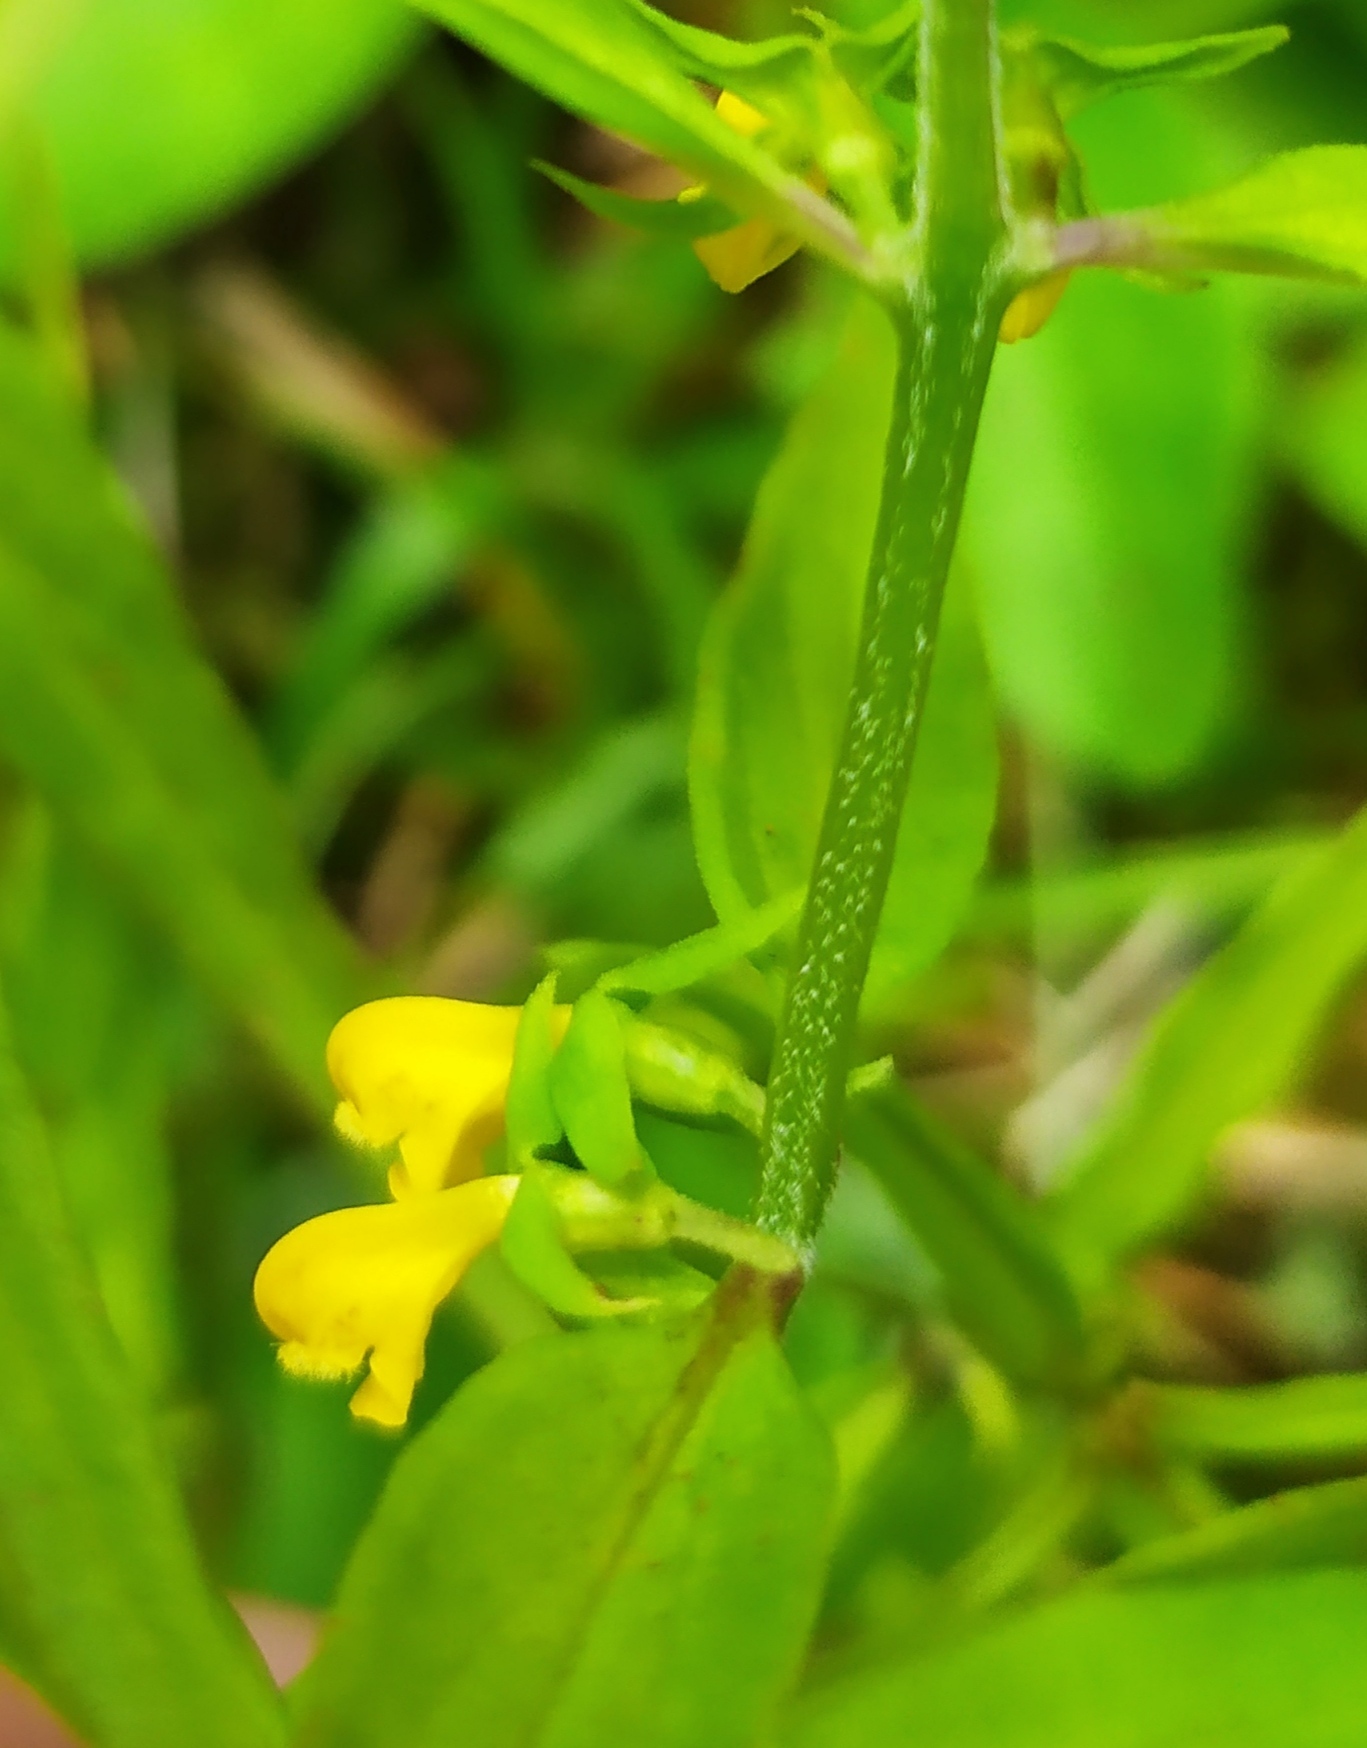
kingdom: Plantae
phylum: Tracheophyta
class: Magnoliopsida
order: Lamiales
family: Orobanchaceae
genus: Melampyrum
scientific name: Melampyrum sylvaticum
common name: Small cow-wheat
